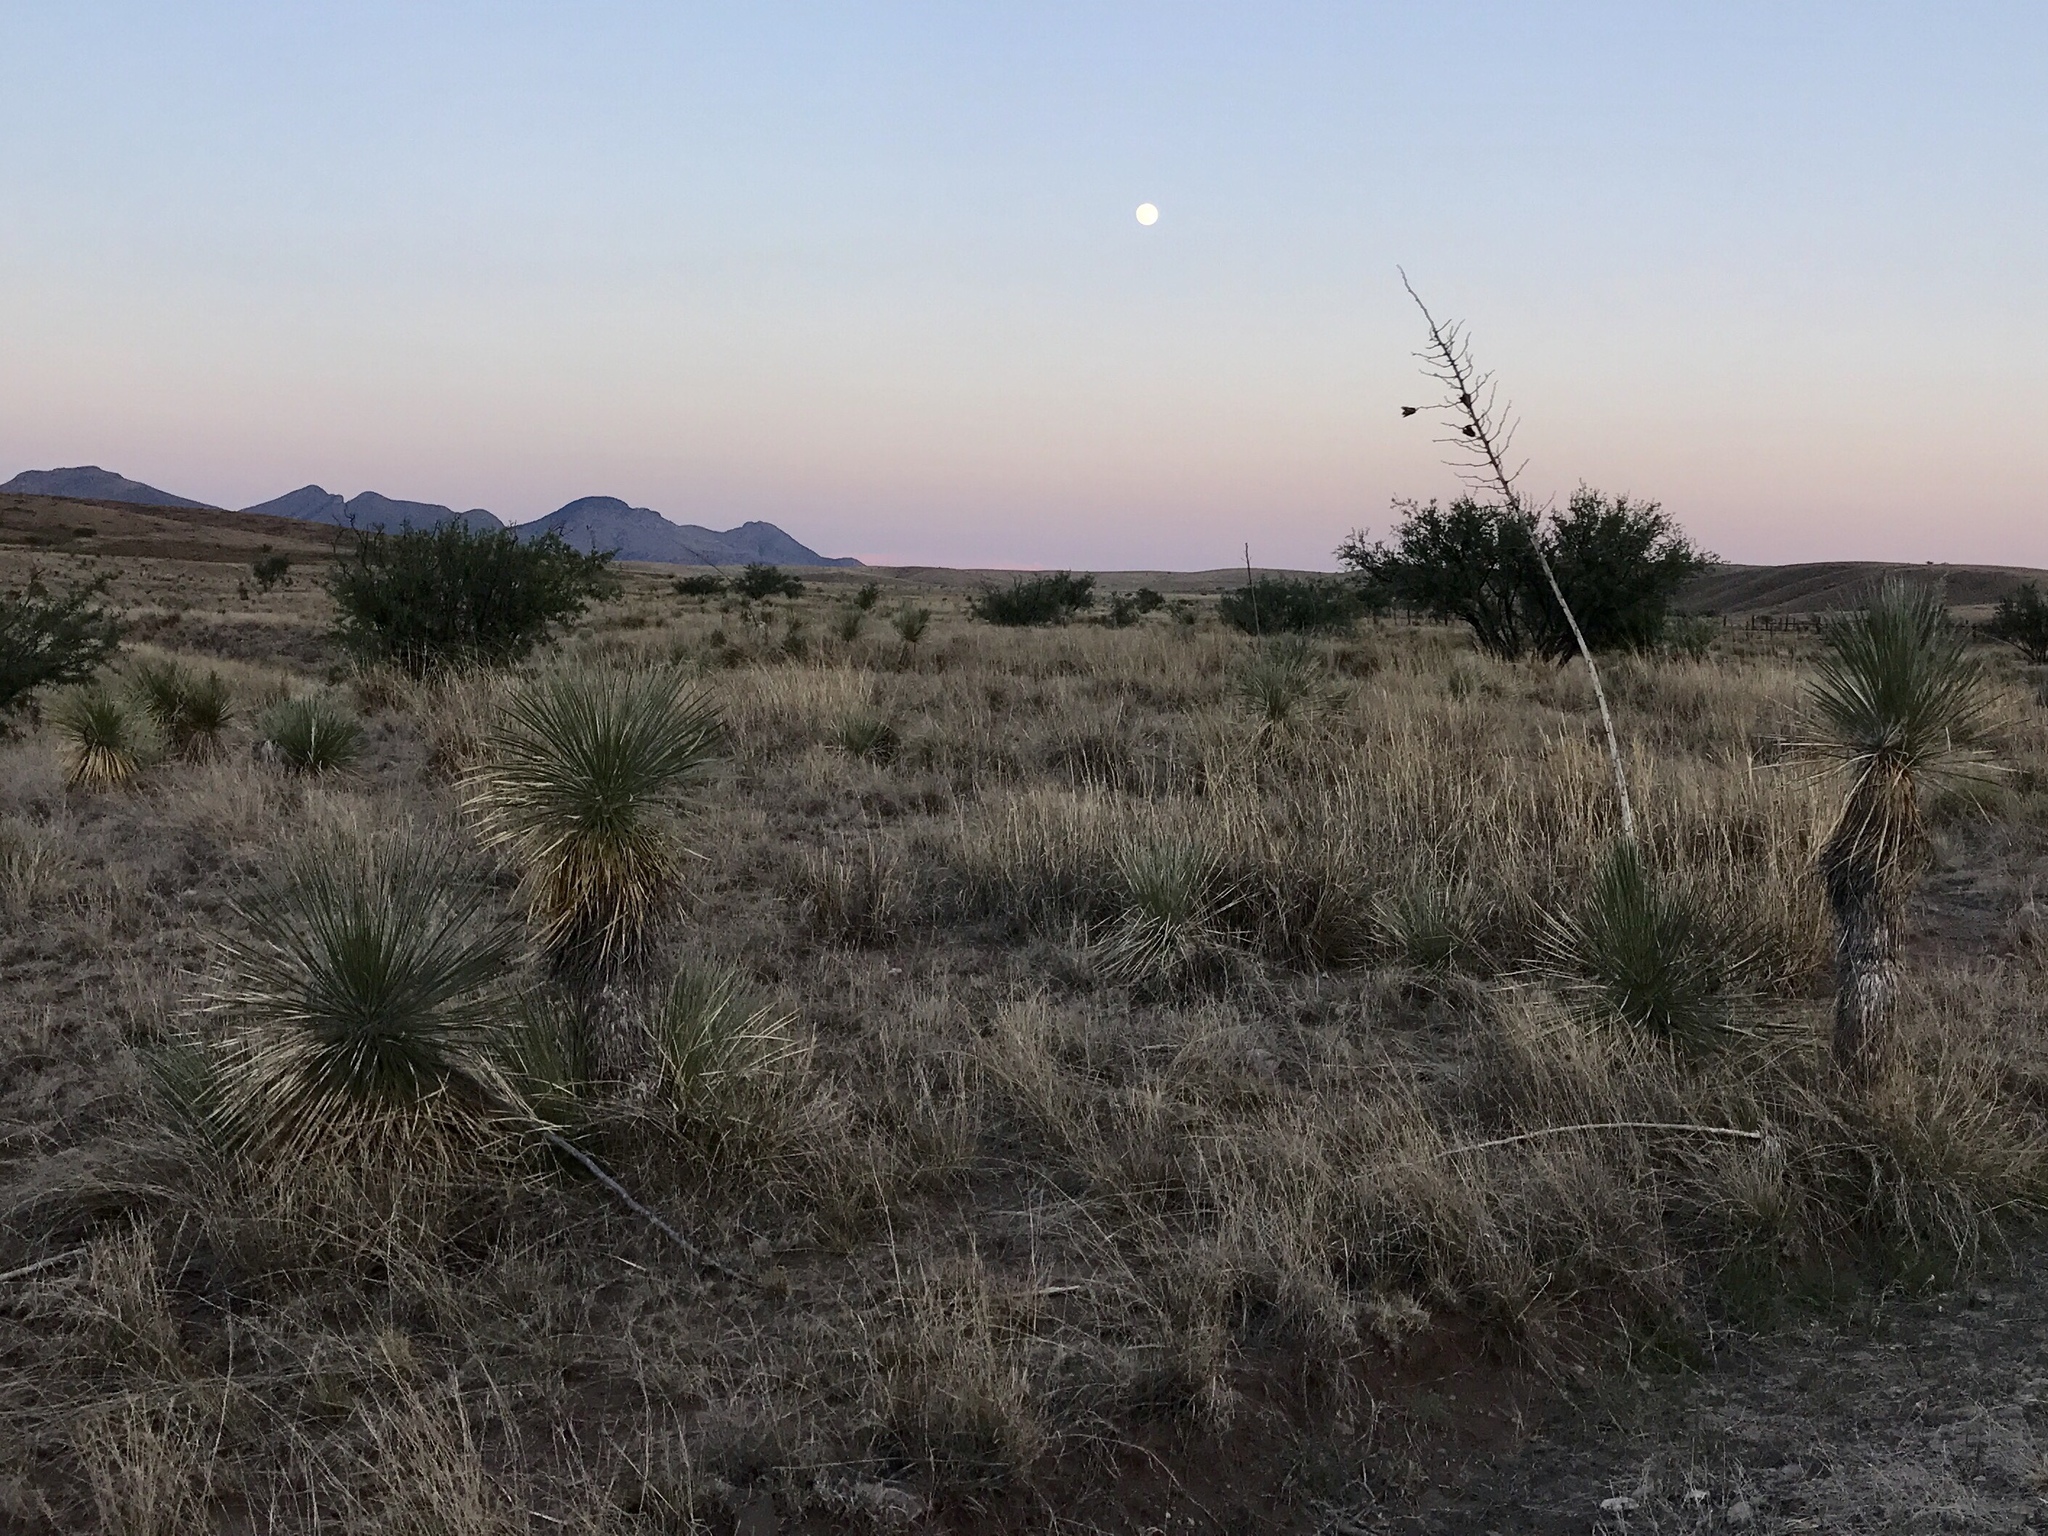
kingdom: Plantae
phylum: Tracheophyta
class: Liliopsida
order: Asparagales
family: Asparagaceae
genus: Yucca
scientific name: Yucca elata
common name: Palmella
